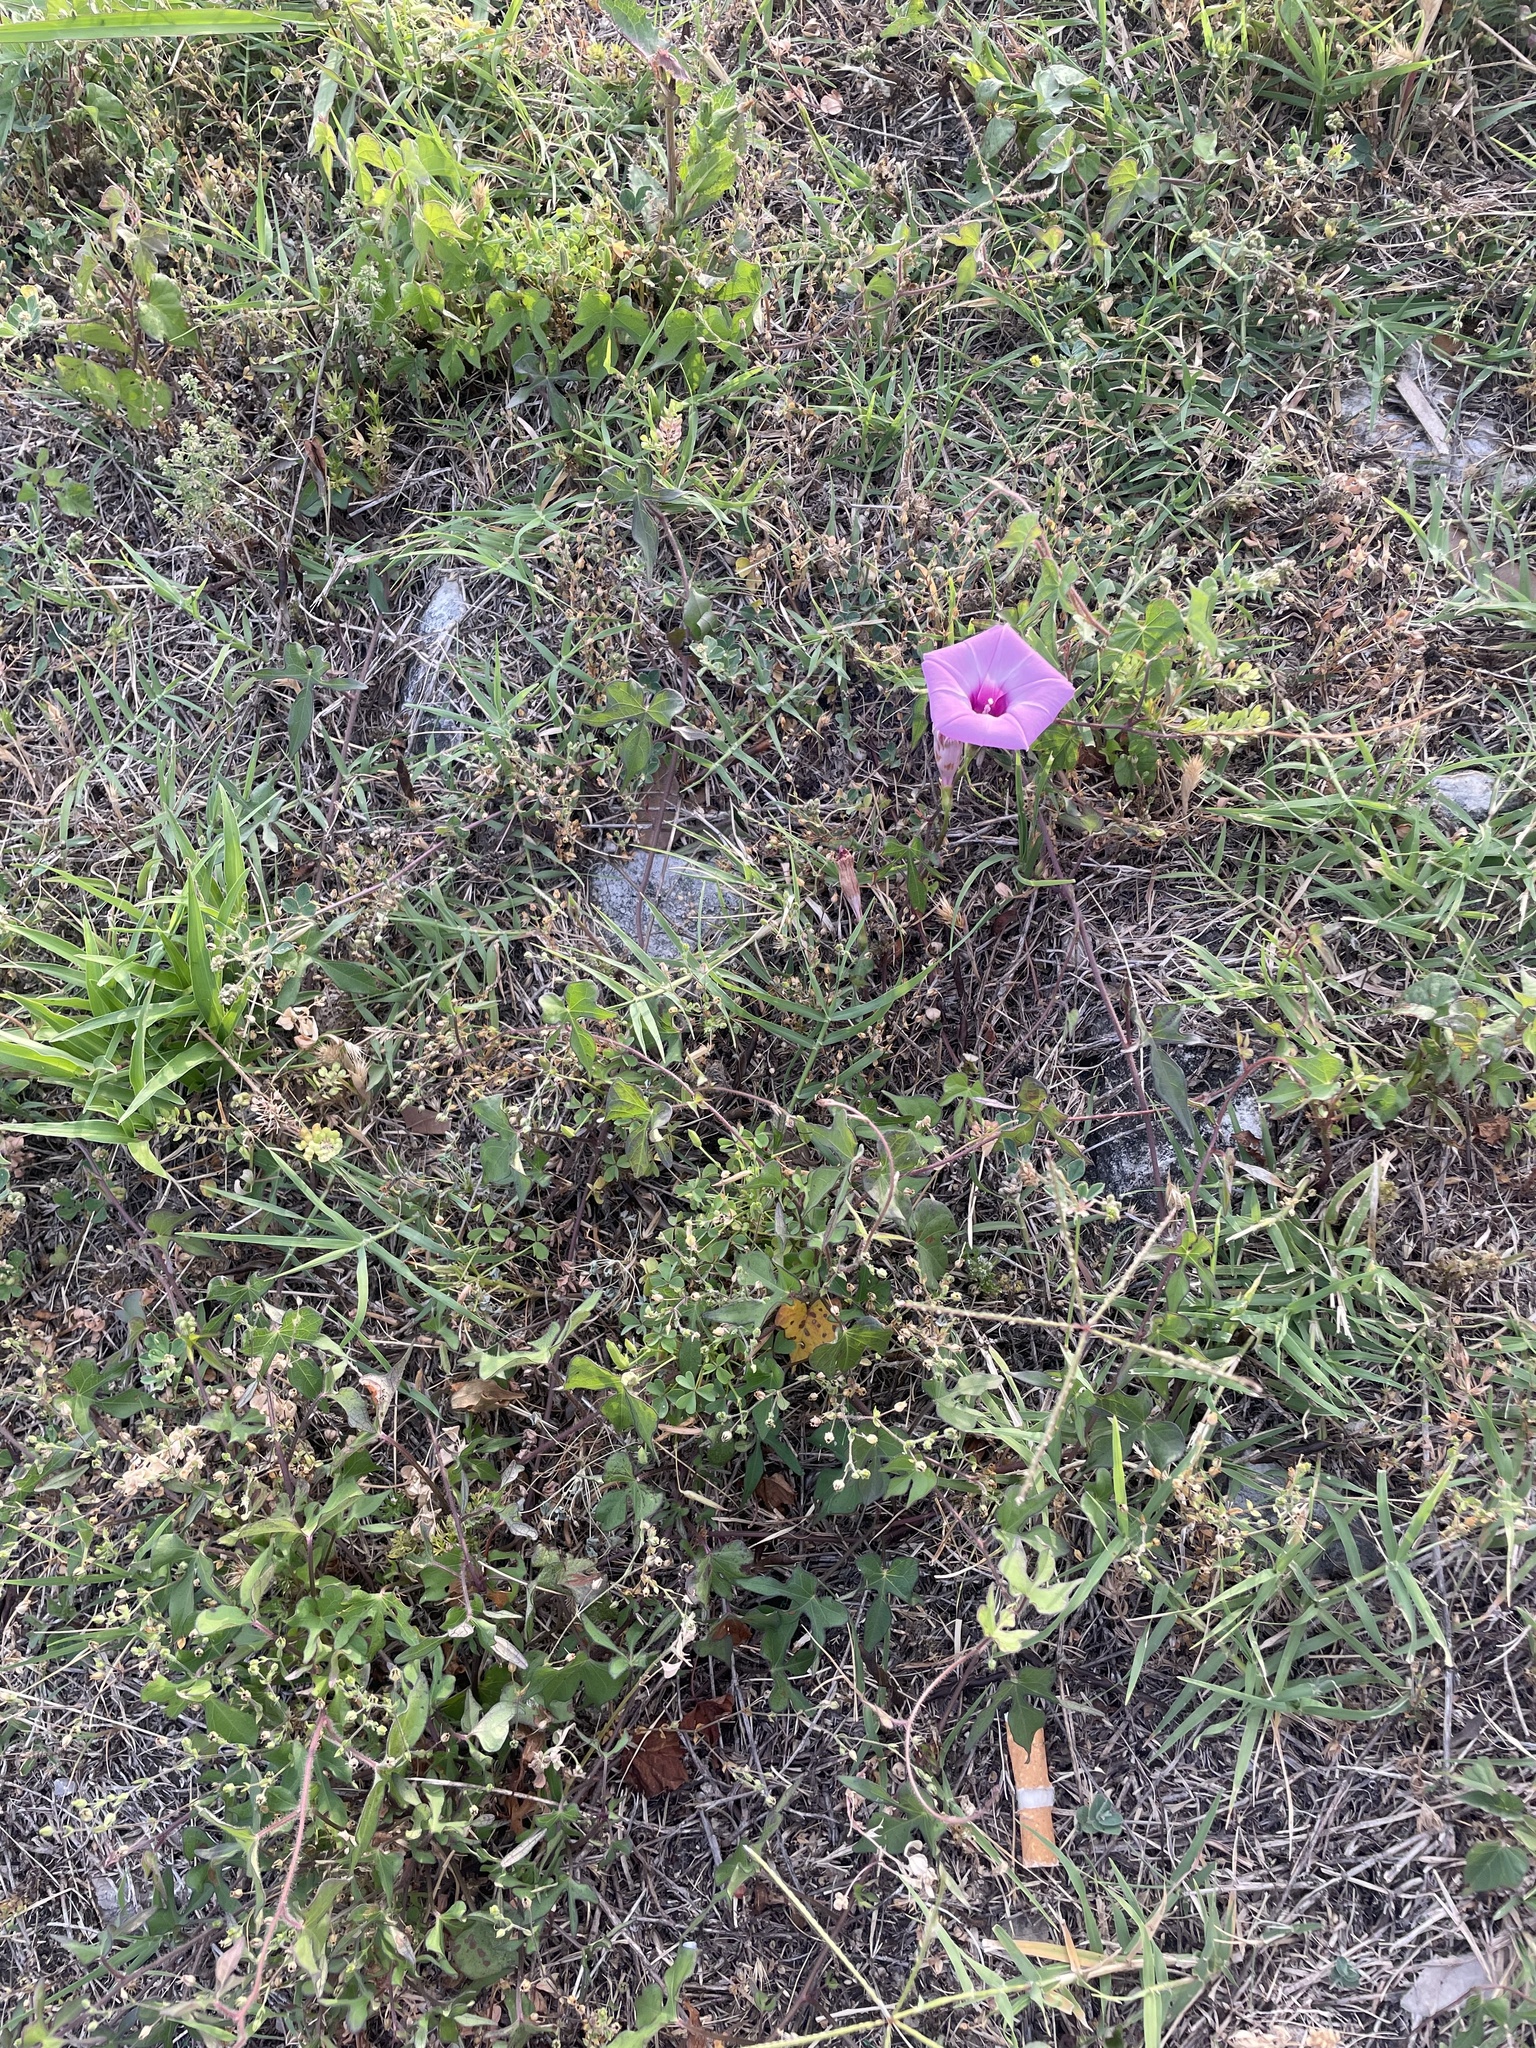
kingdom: Plantae
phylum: Tracheophyta
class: Magnoliopsida
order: Solanales
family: Convolvulaceae
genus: Ipomoea
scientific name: Ipomoea cordatotriloba
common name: Cotton morning glory
